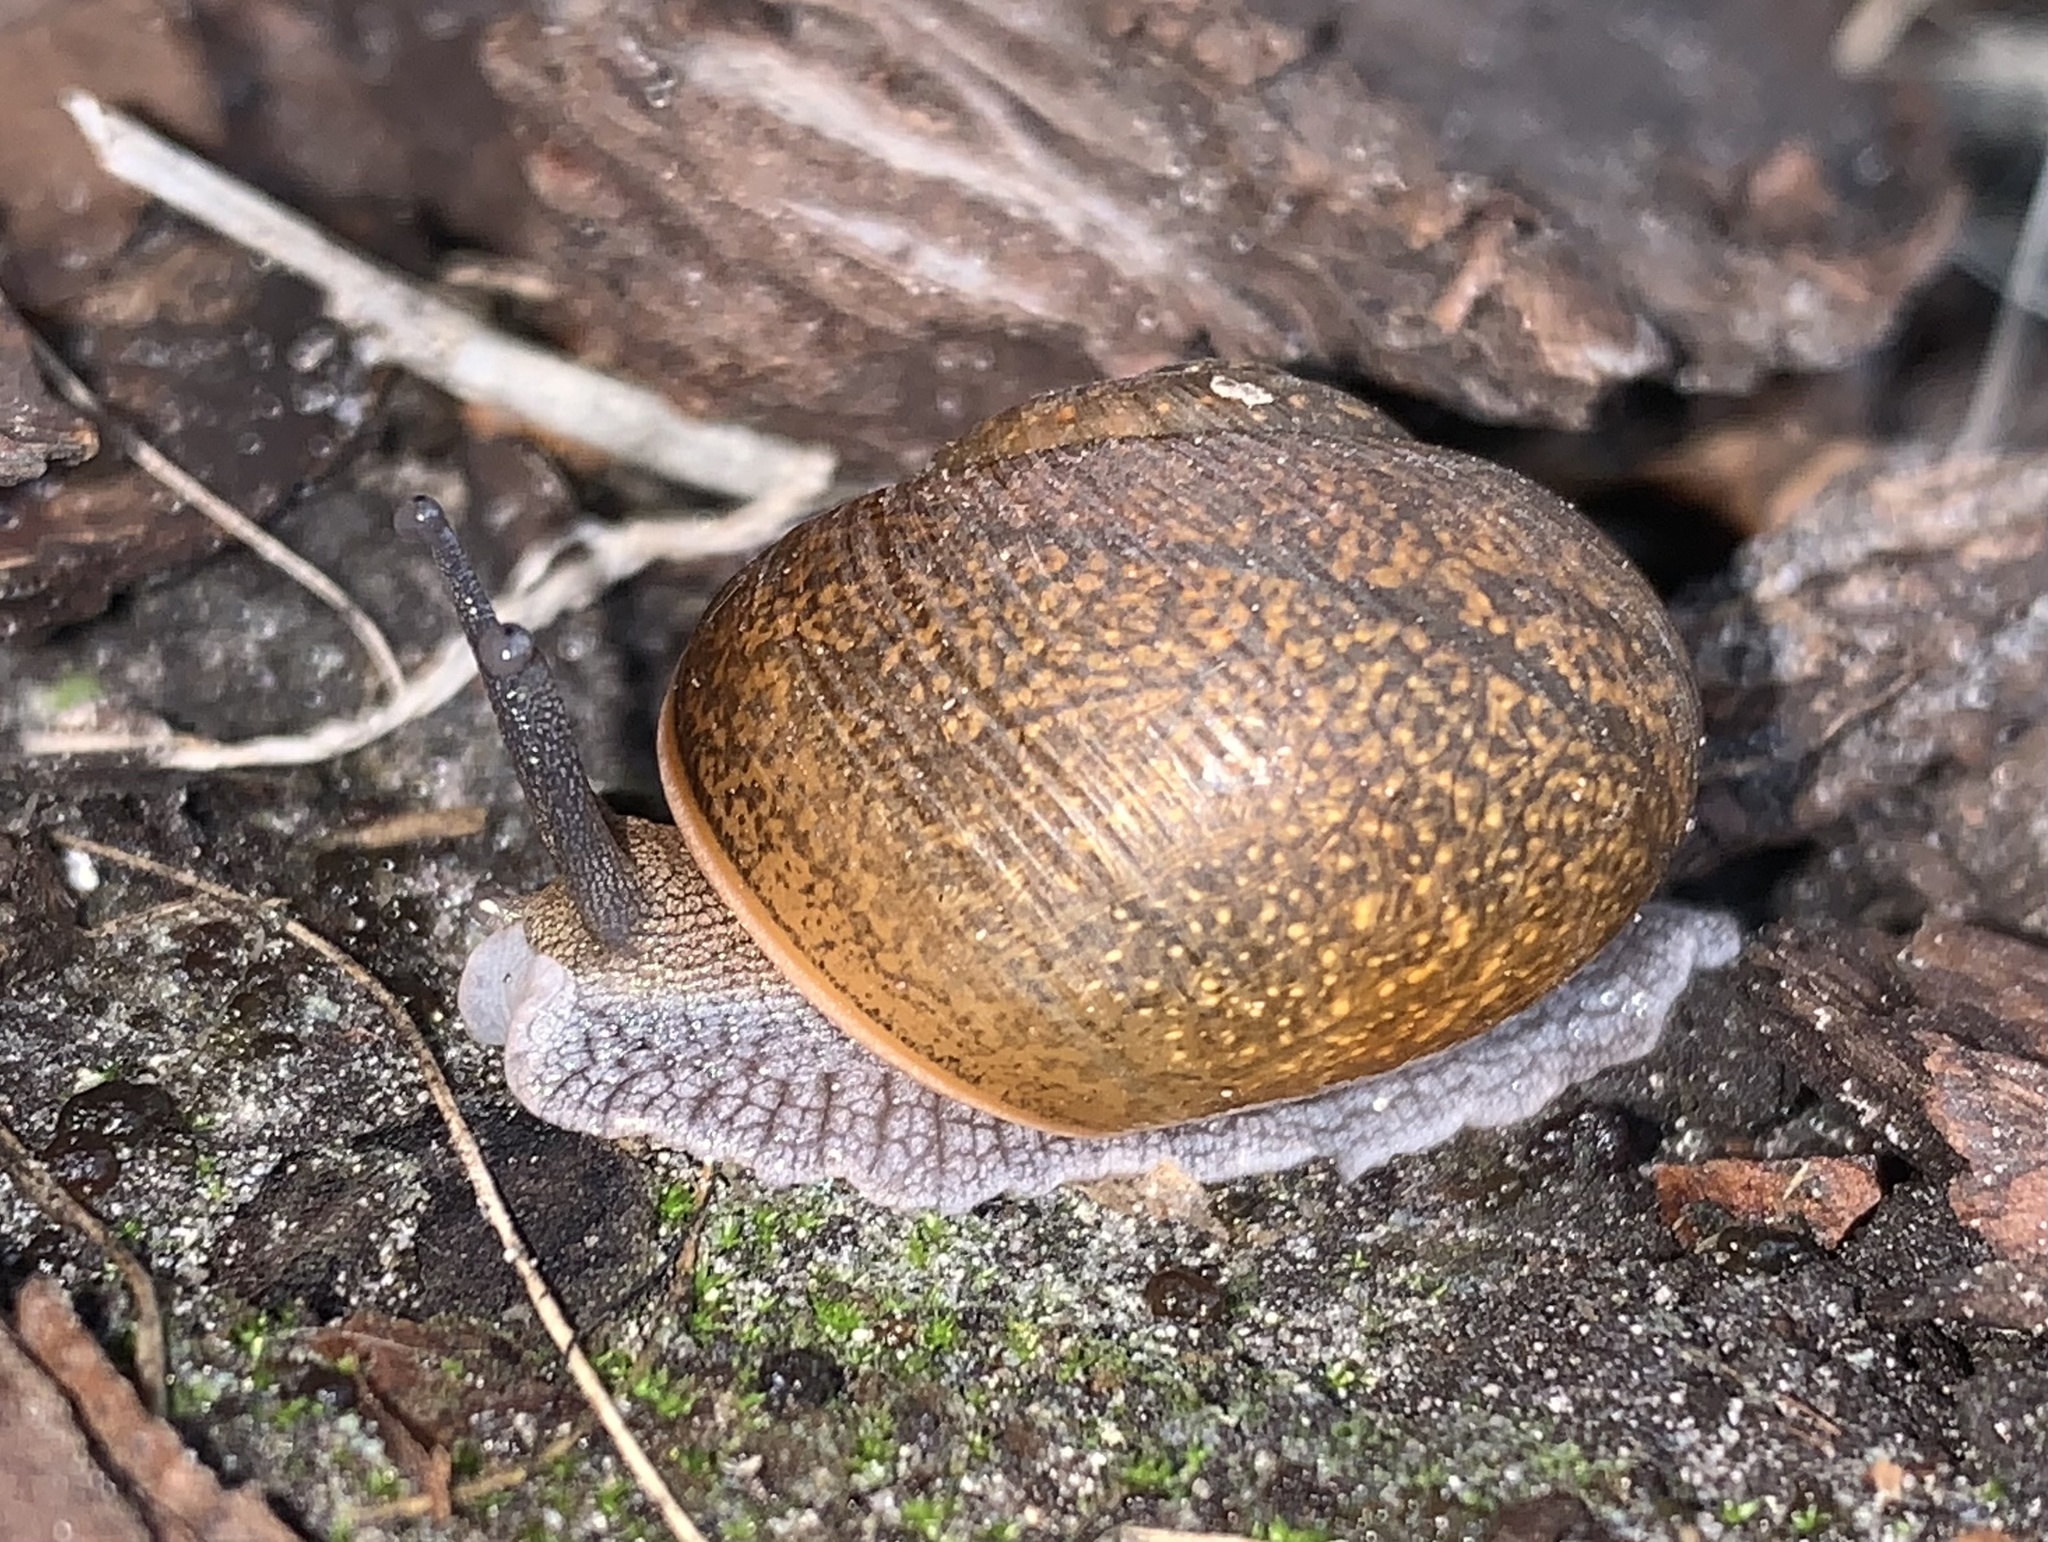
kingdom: Animalia
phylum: Mollusca
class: Gastropoda
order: Stylommatophora
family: Zachrysiidae
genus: Zachrysia
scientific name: Zachrysia provisoria
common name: Garden zachrysia
